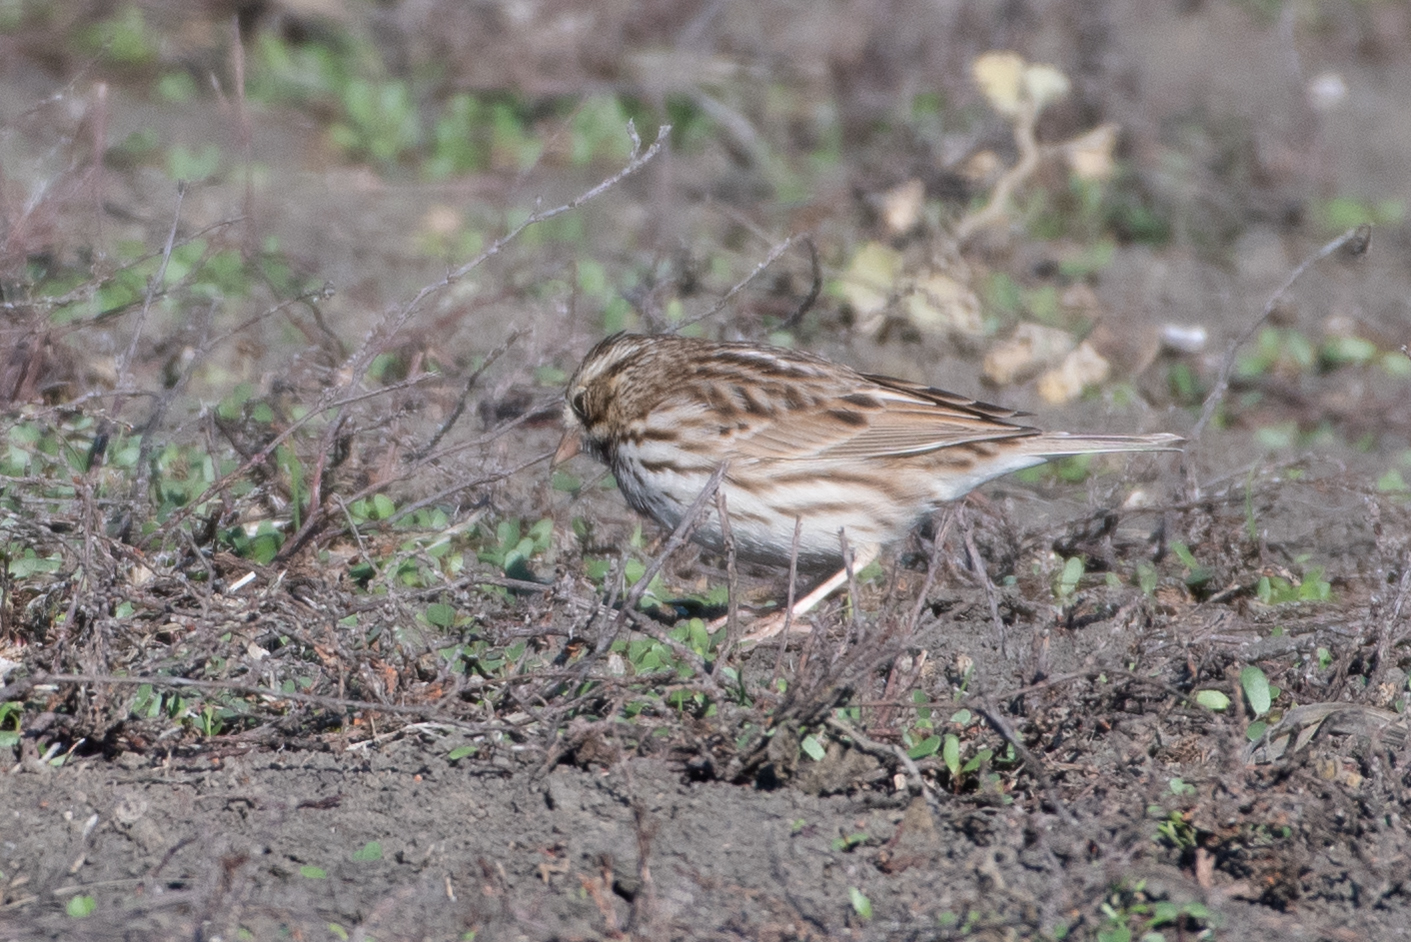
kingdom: Animalia
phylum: Chordata
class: Aves
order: Passeriformes
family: Passerellidae
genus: Passerculus
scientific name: Passerculus sandwichensis
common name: Savannah sparrow
